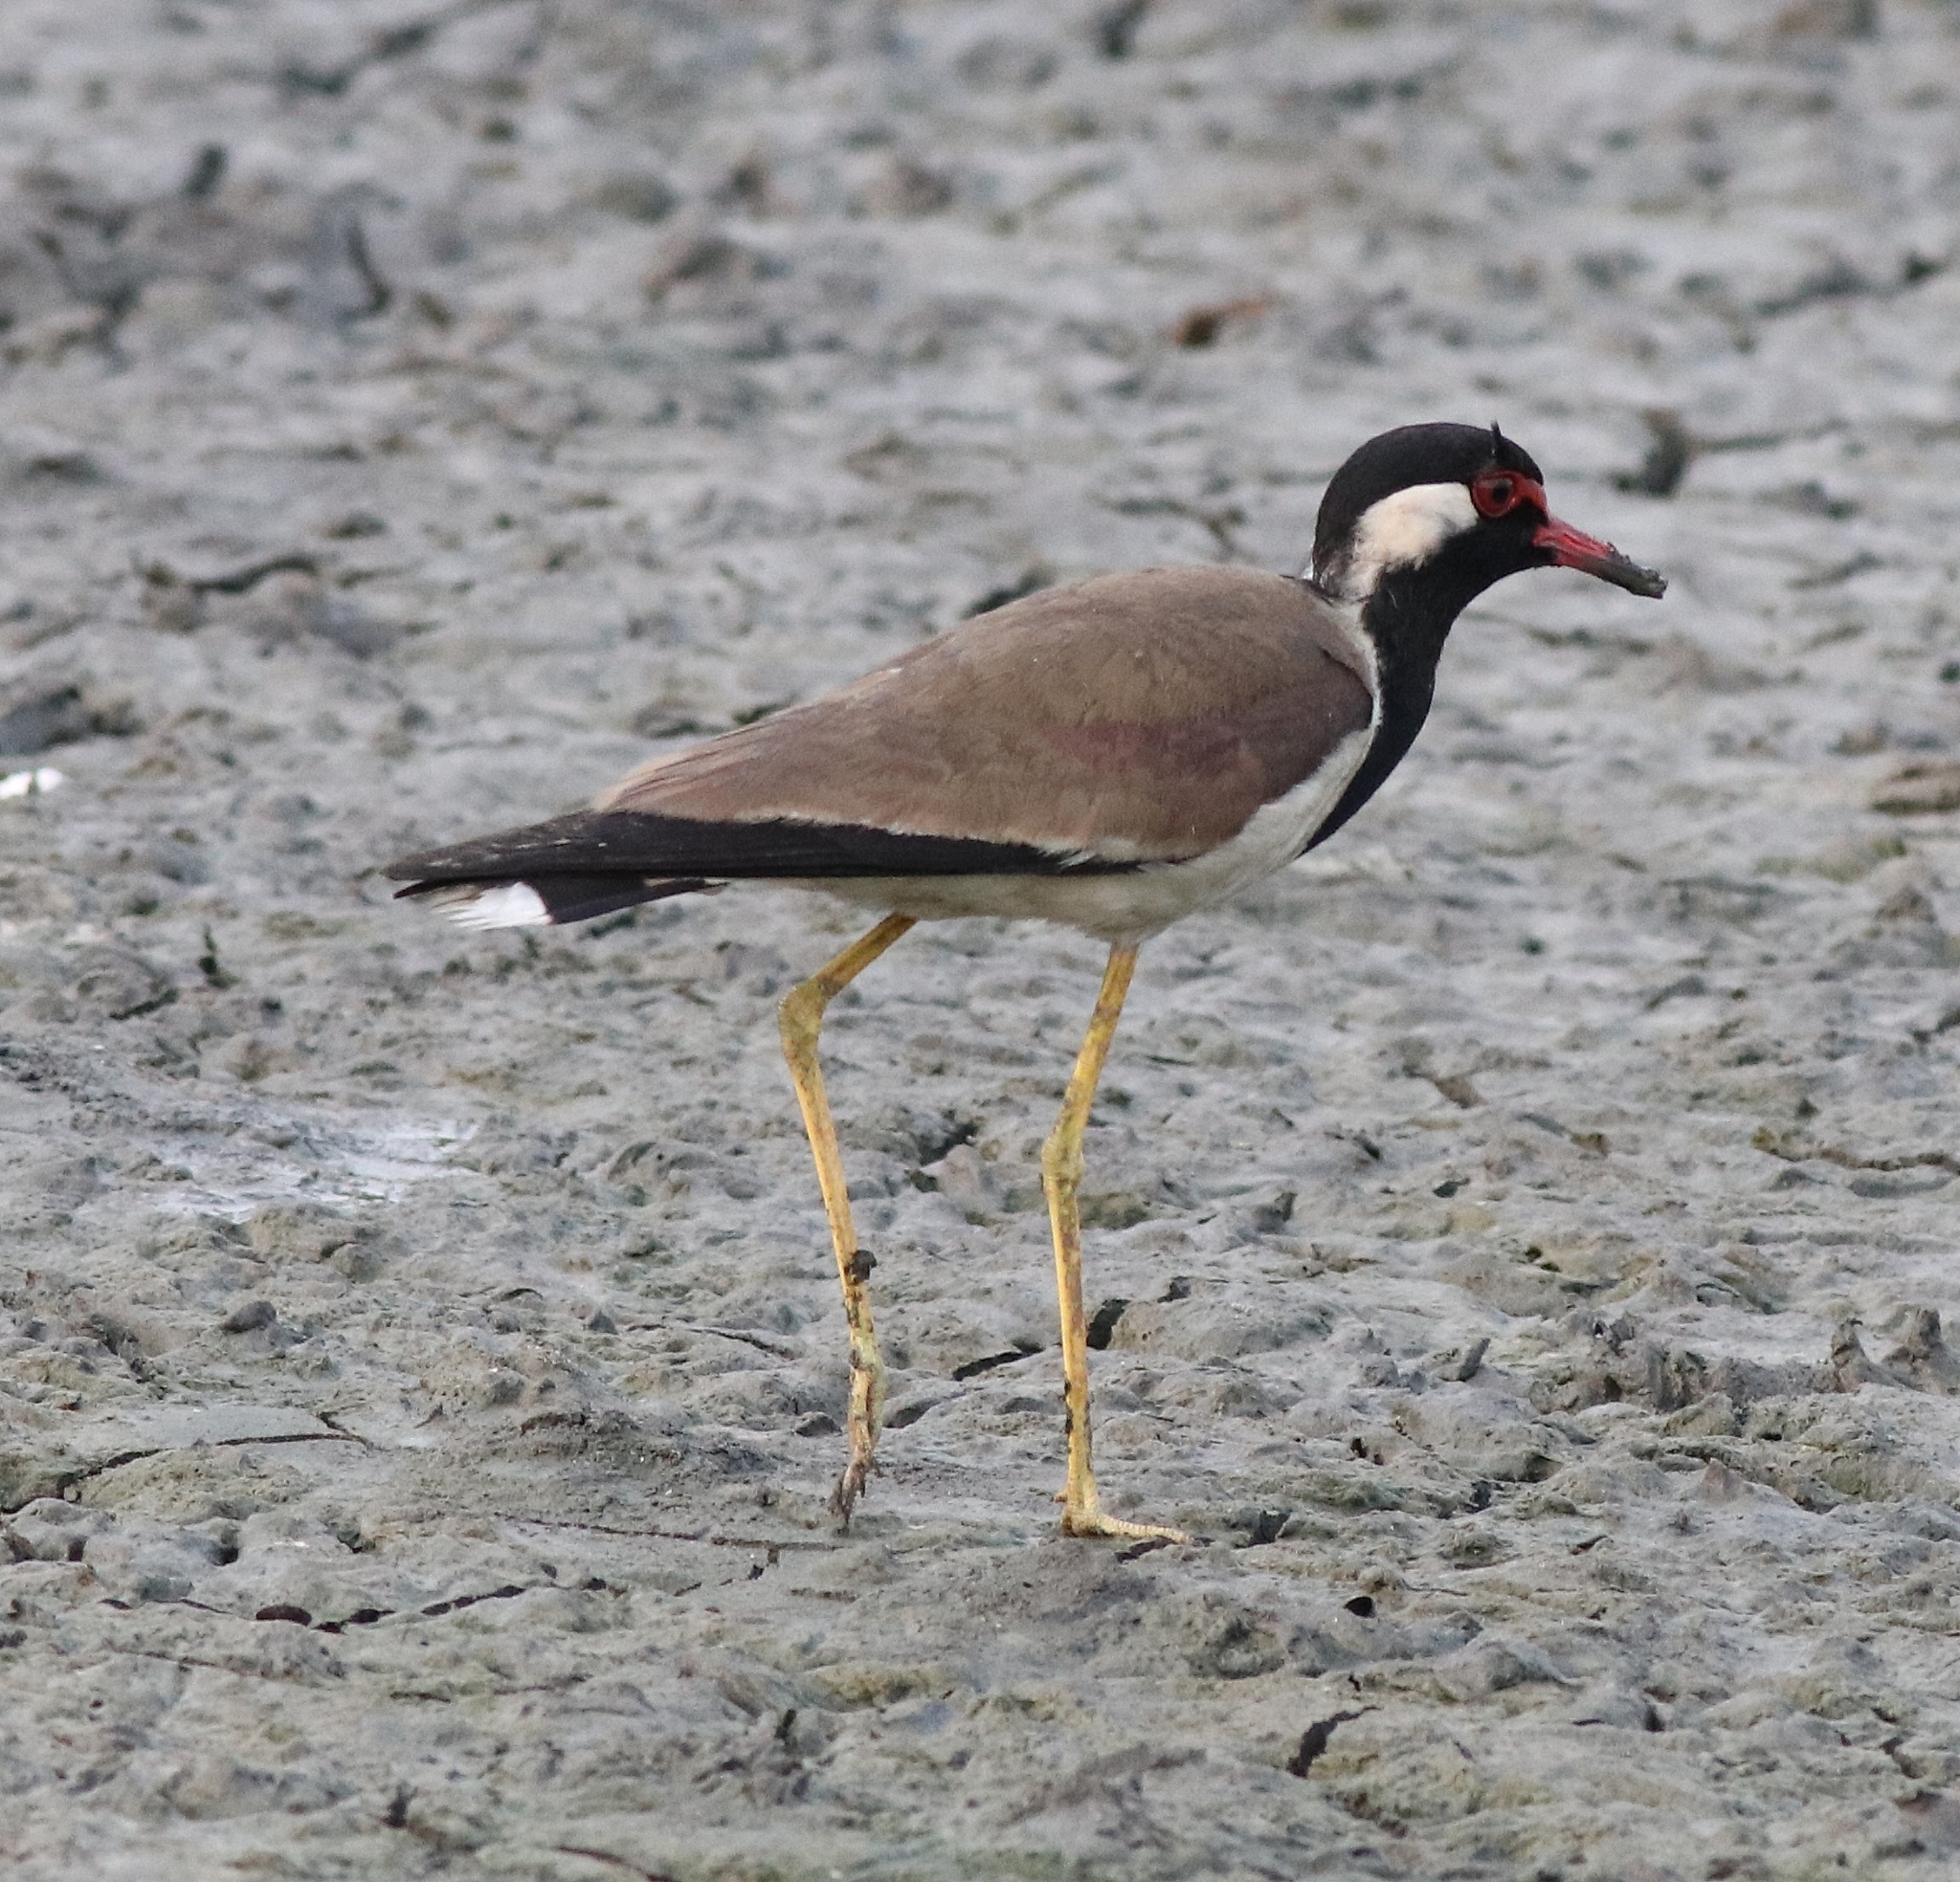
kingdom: Animalia
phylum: Chordata
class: Aves
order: Charadriiformes
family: Charadriidae
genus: Vanellus
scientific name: Vanellus indicus
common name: Red-wattled lapwing
